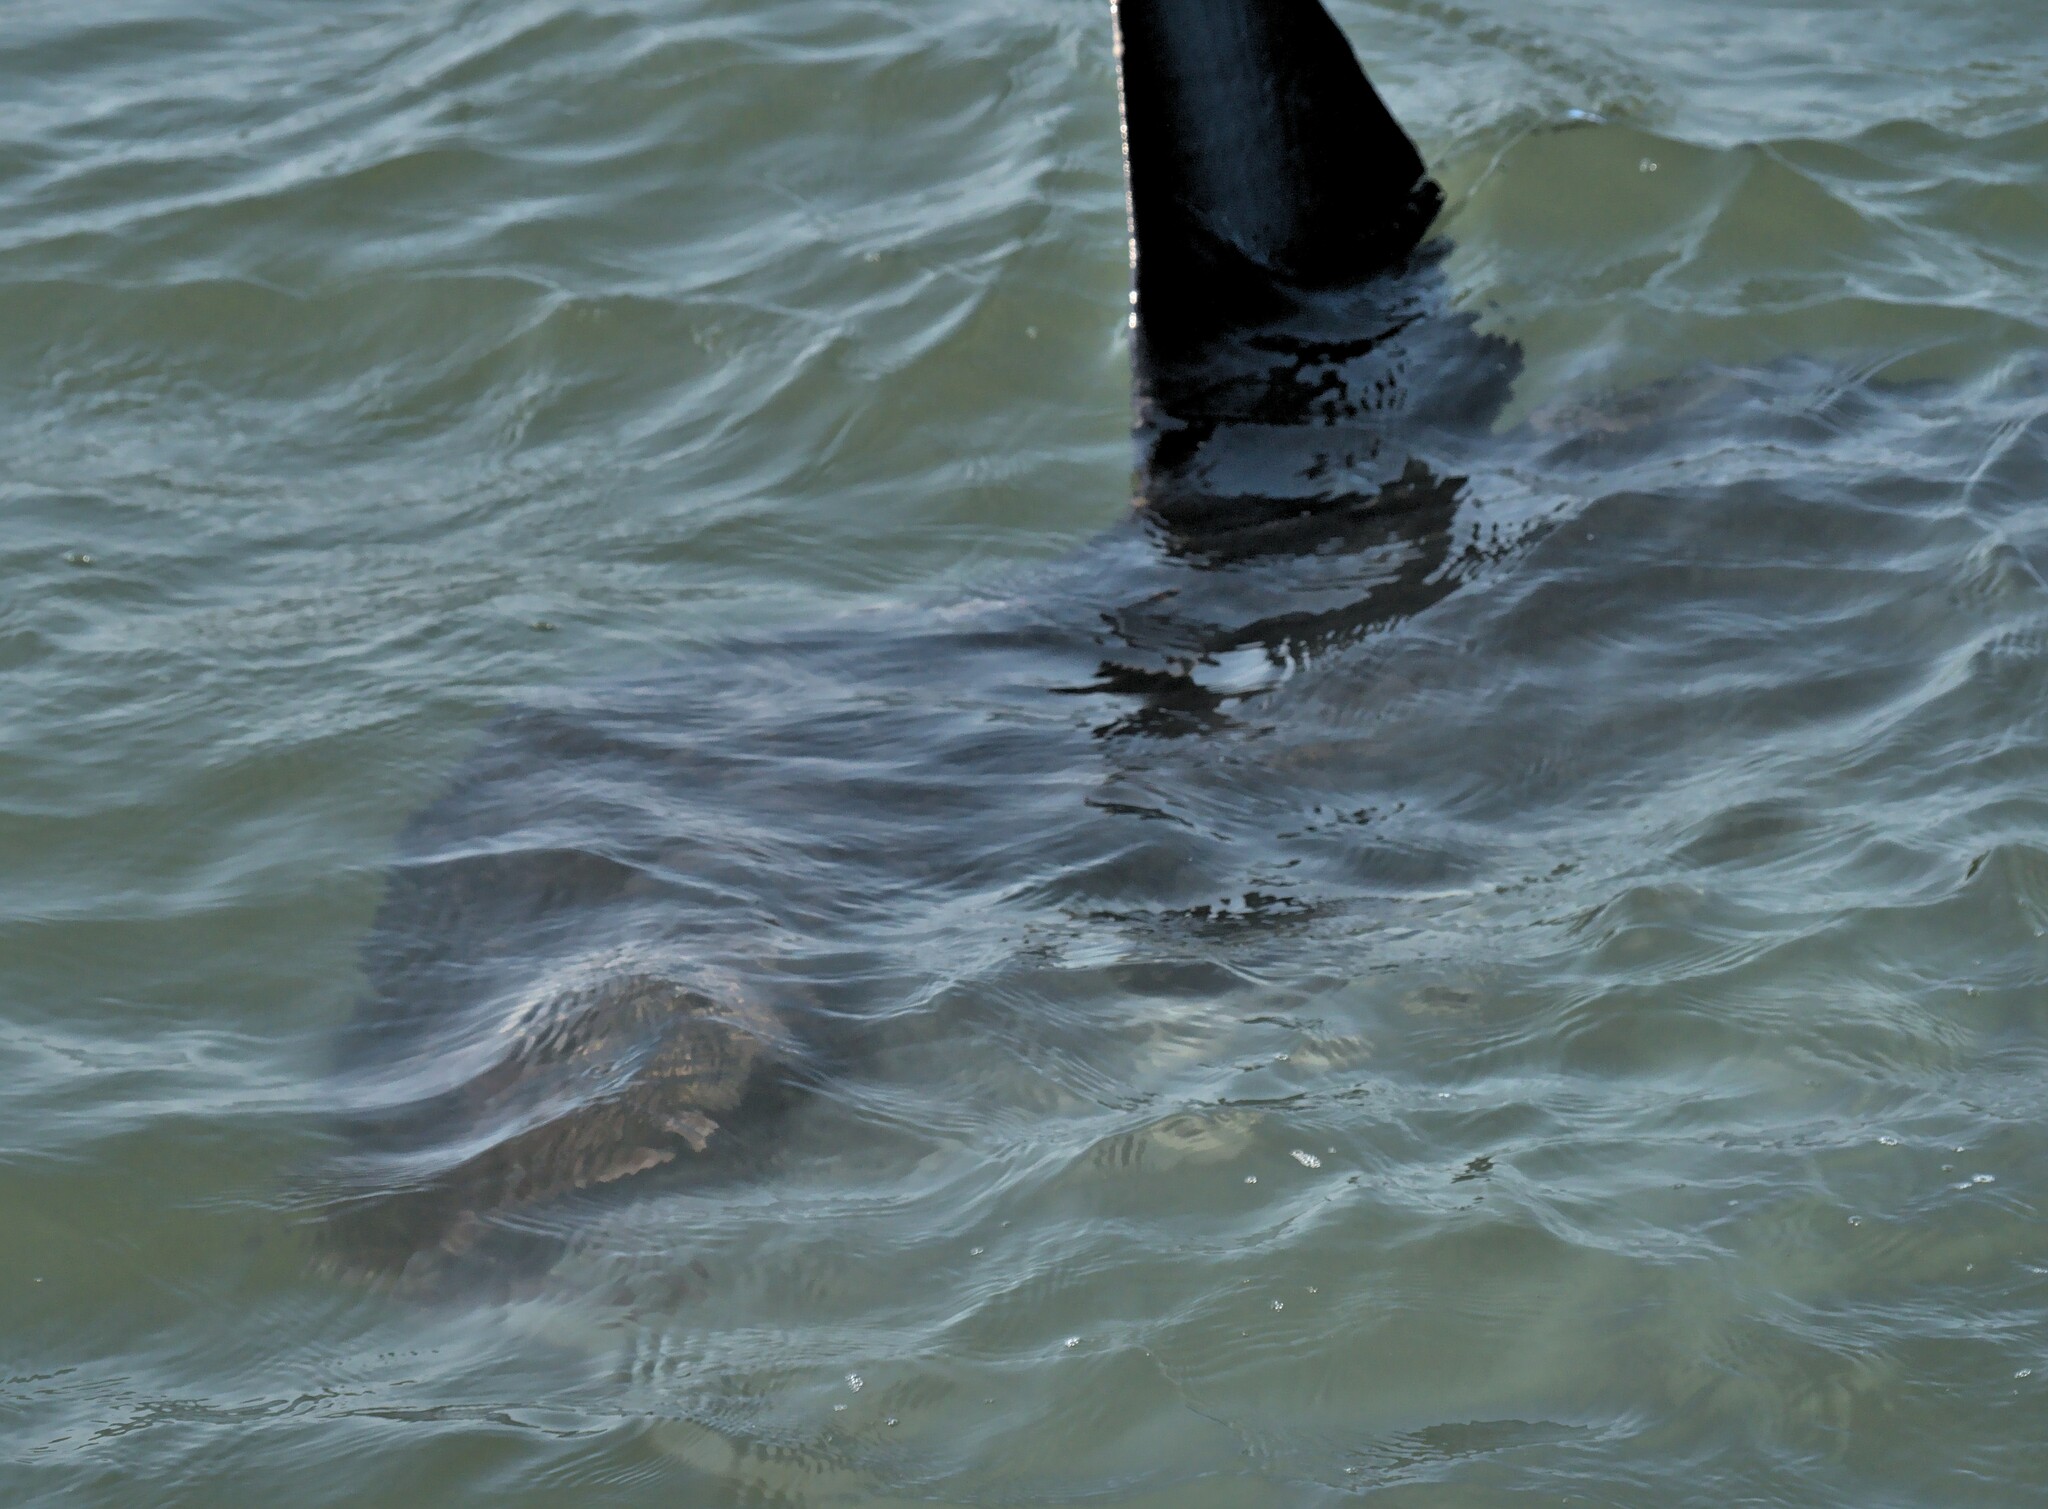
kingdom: Animalia
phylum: Chordata
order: Tetraodontiformes
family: Molidae
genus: Mola
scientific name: Mola mola
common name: Ocean sunfish
